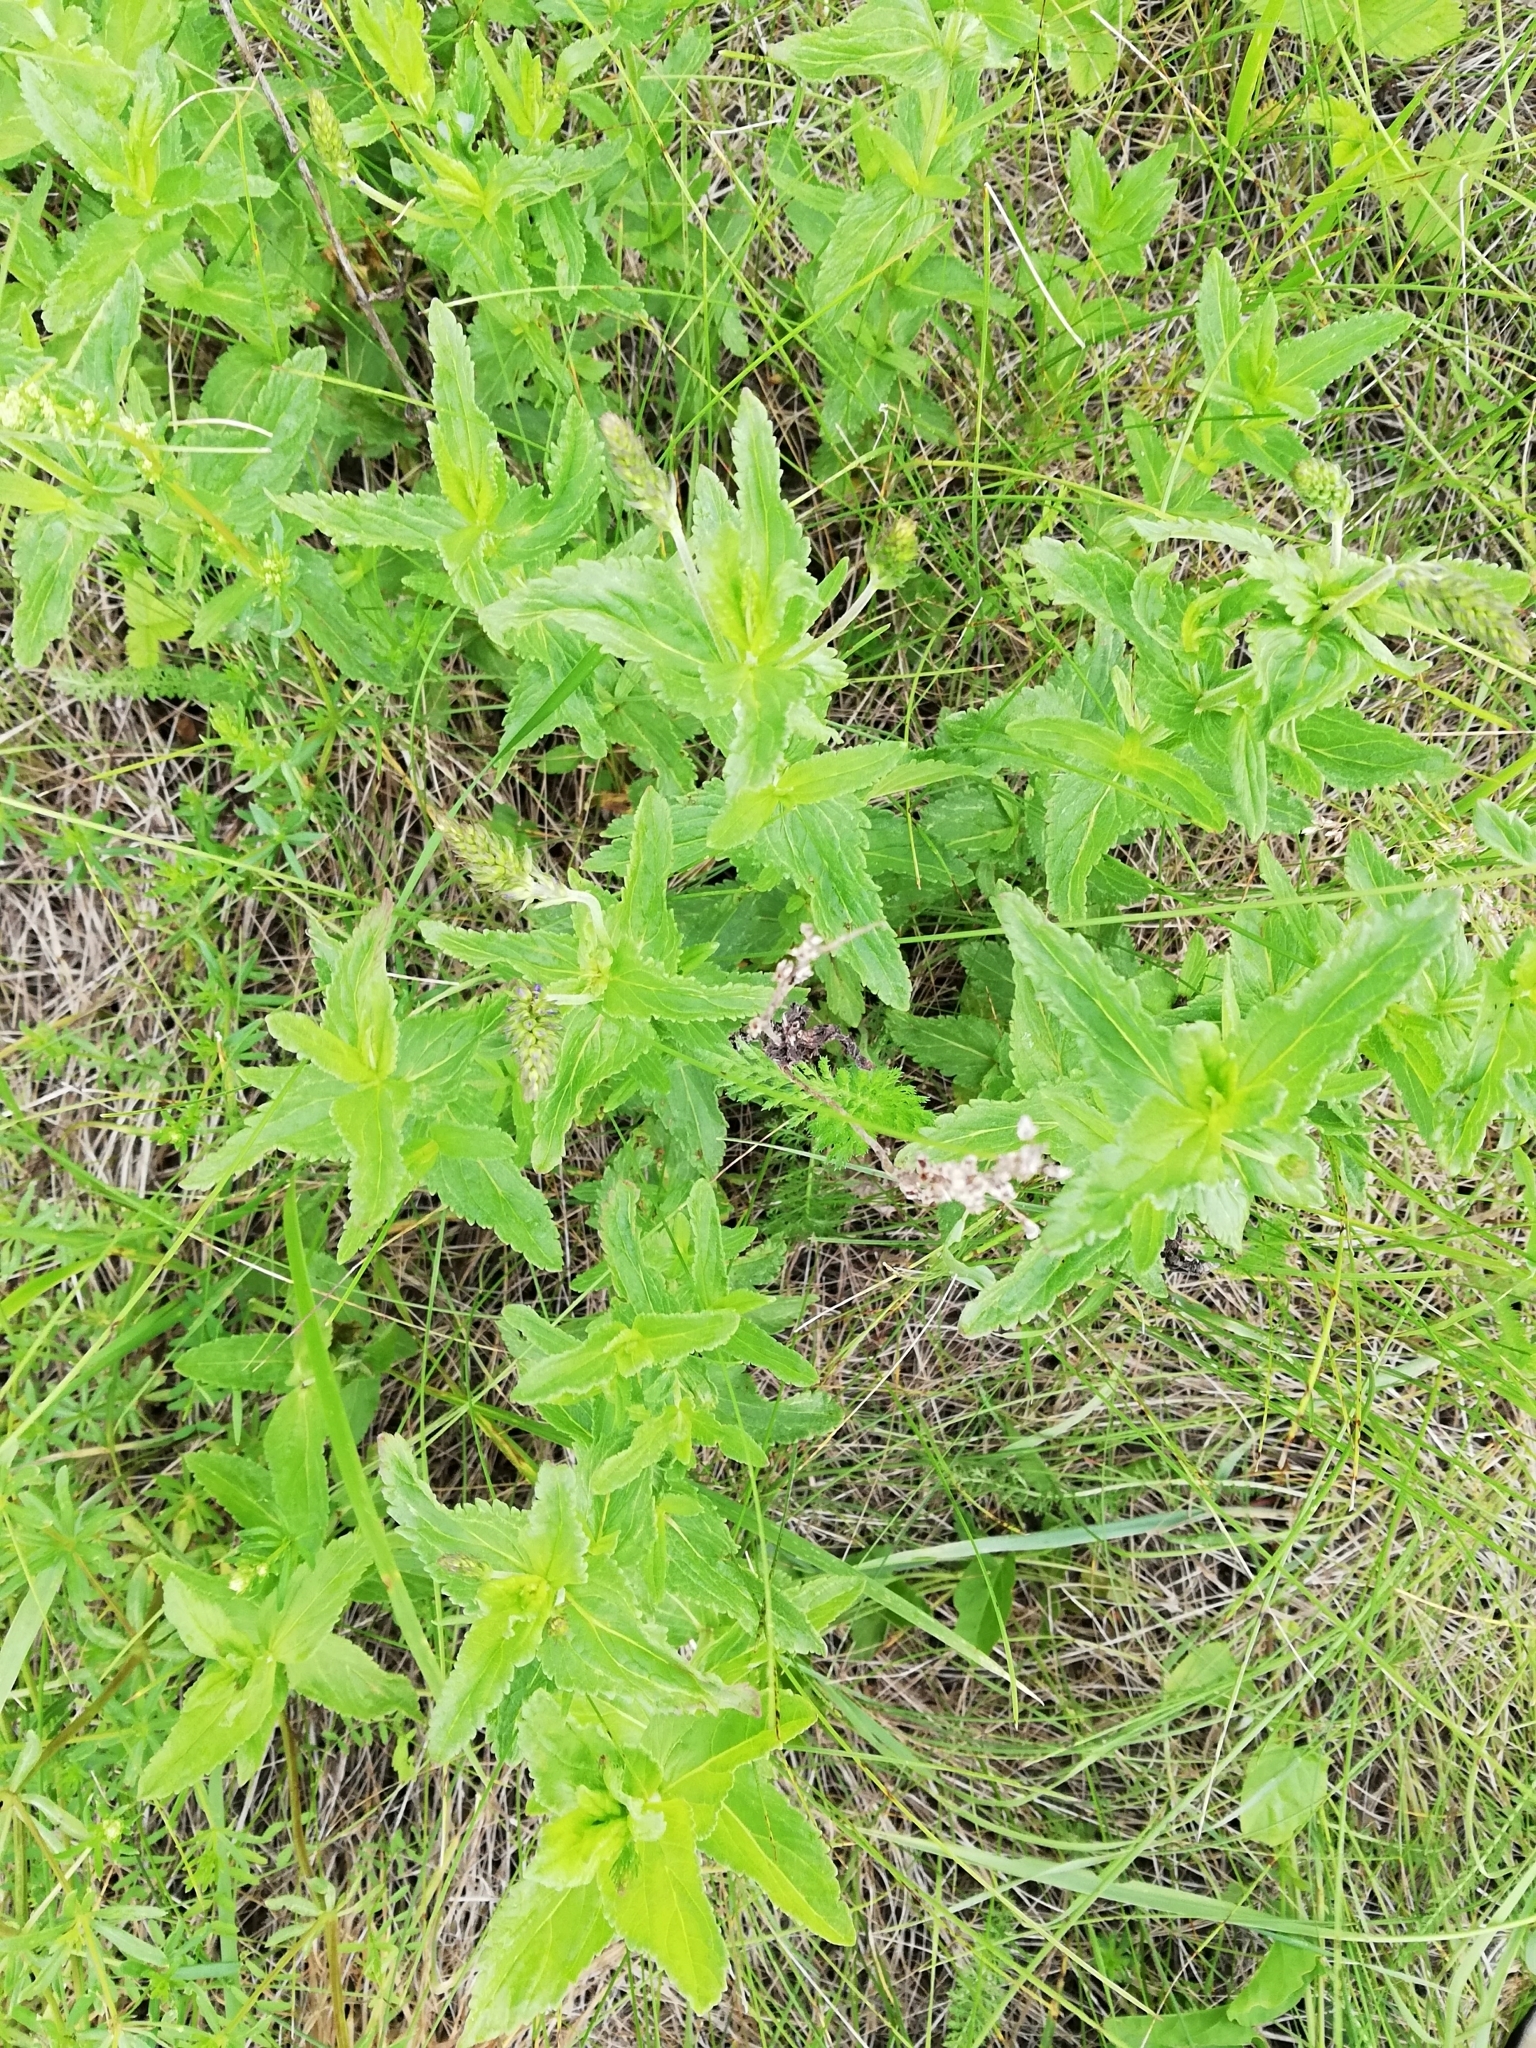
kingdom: Plantae
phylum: Tracheophyta
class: Magnoliopsida
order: Lamiales
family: Plantaginaceae
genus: Veronica
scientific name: Veronica teucrium
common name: Large speedwell
